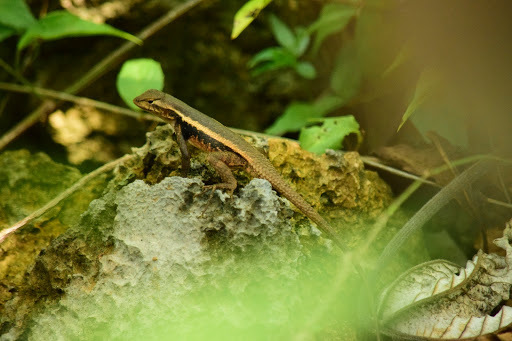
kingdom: Animalia
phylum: Chordata
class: Squamata
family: Phrynosomatidae
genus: Sceloporus
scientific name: Sceloporus chrysostictus
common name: Yellow-spotted spiny lizard
